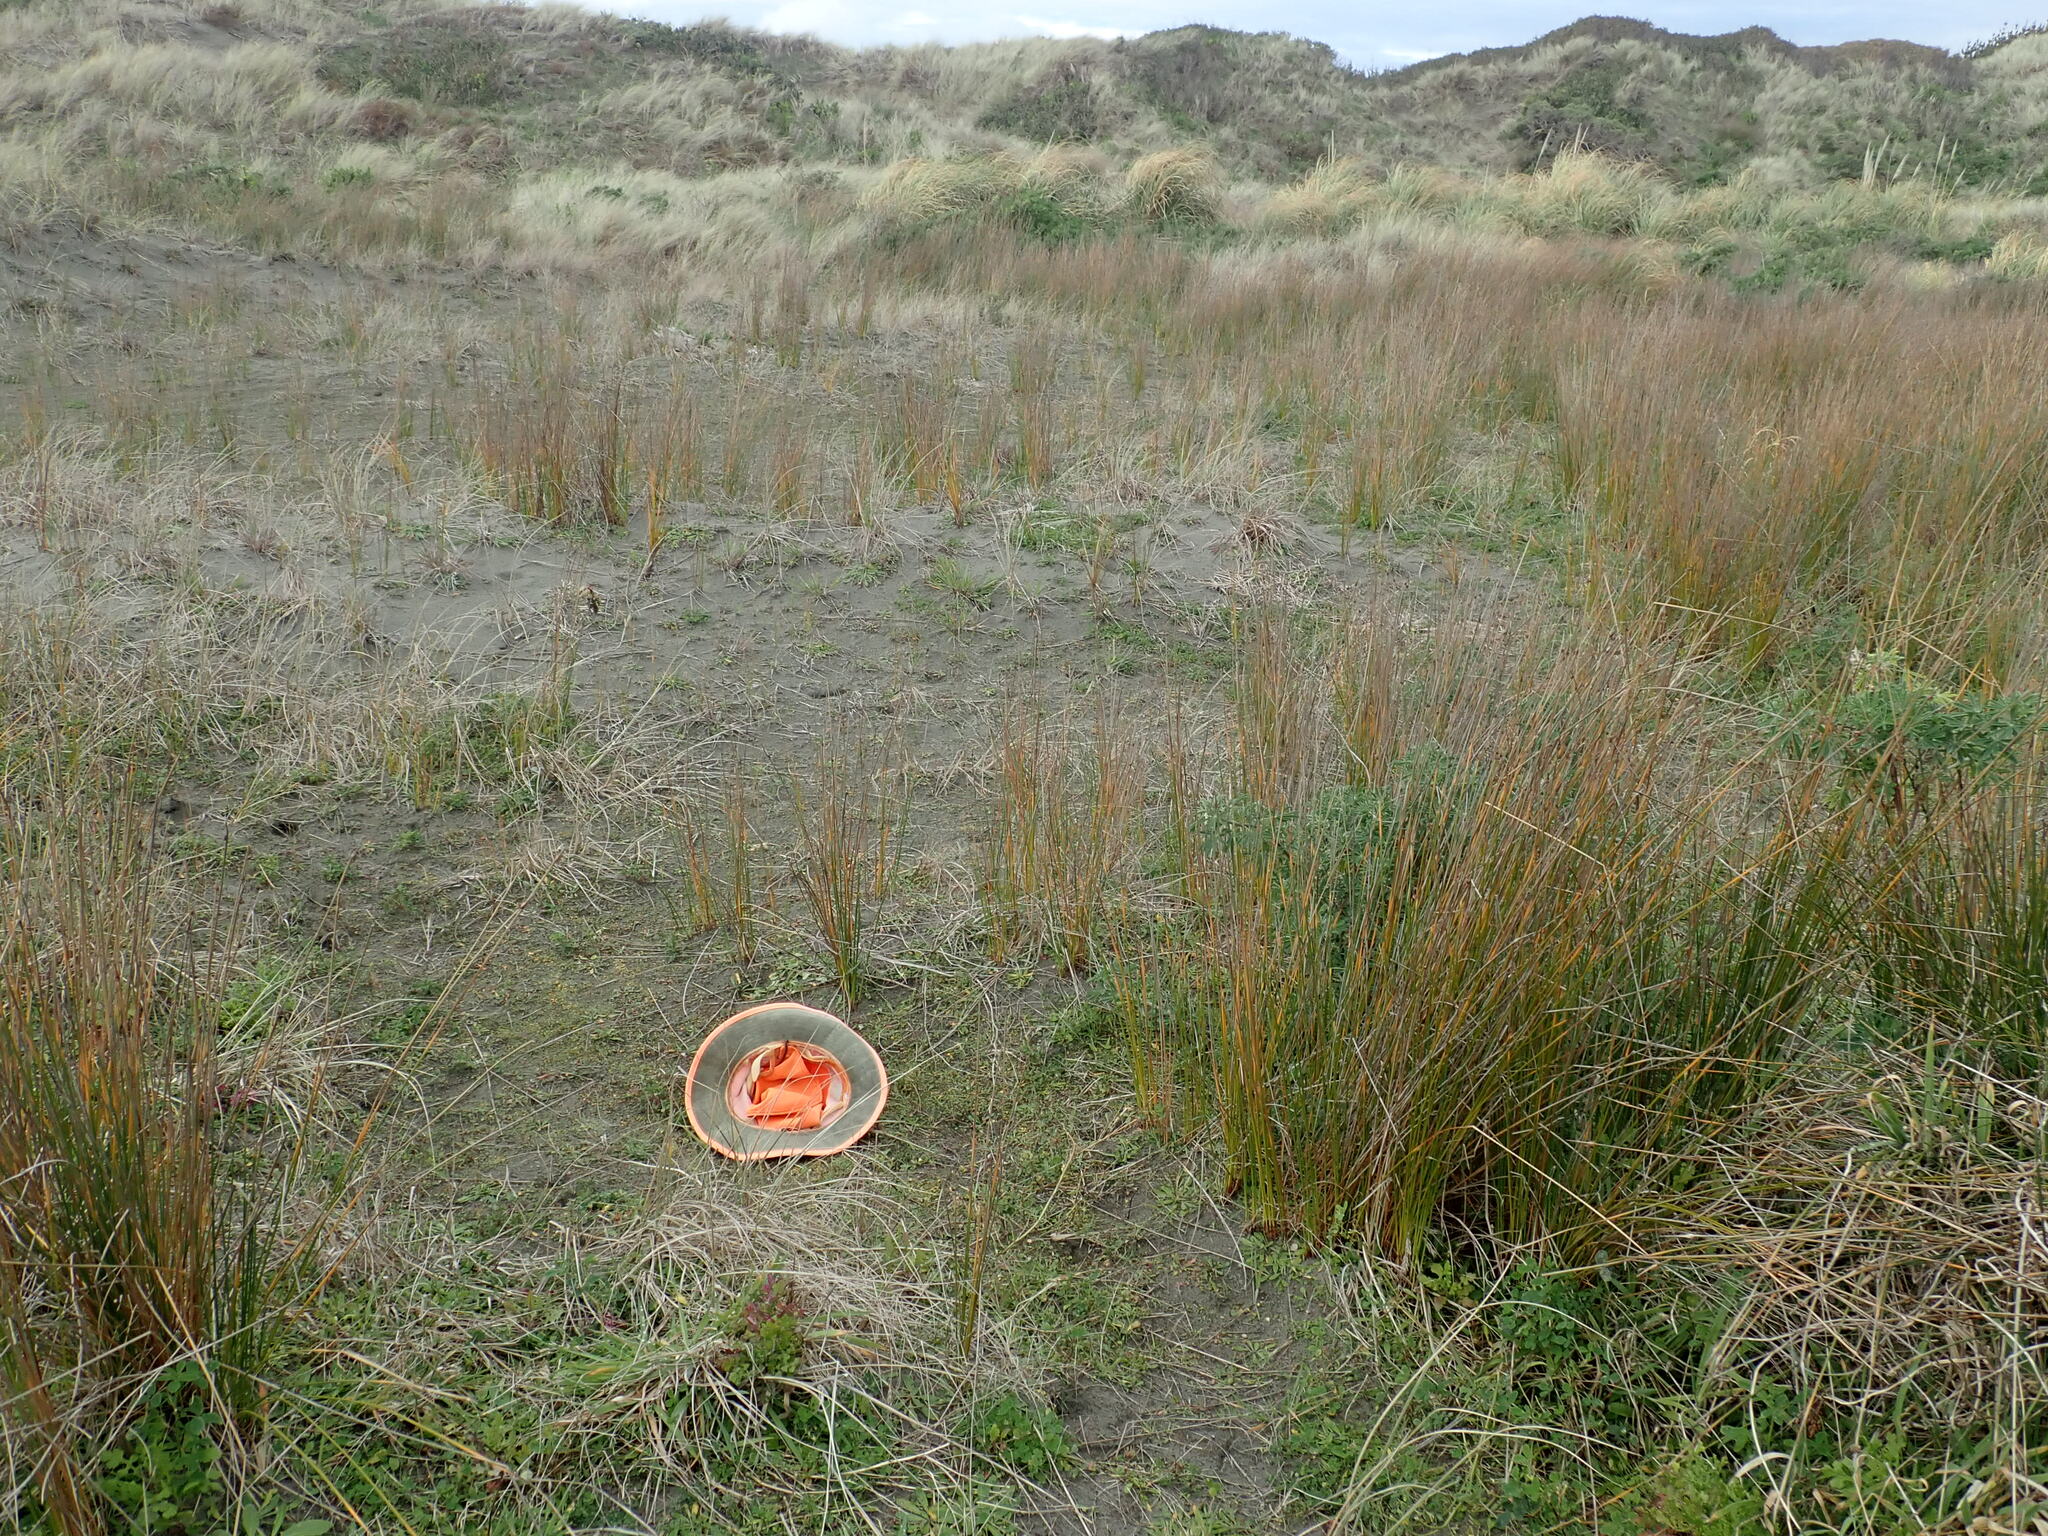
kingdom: Plantae
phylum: Tracheophyta
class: Magnoliopsida
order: Asterales
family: Goodeniaceae
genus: Goodenia
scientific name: Goodenia heenanii
